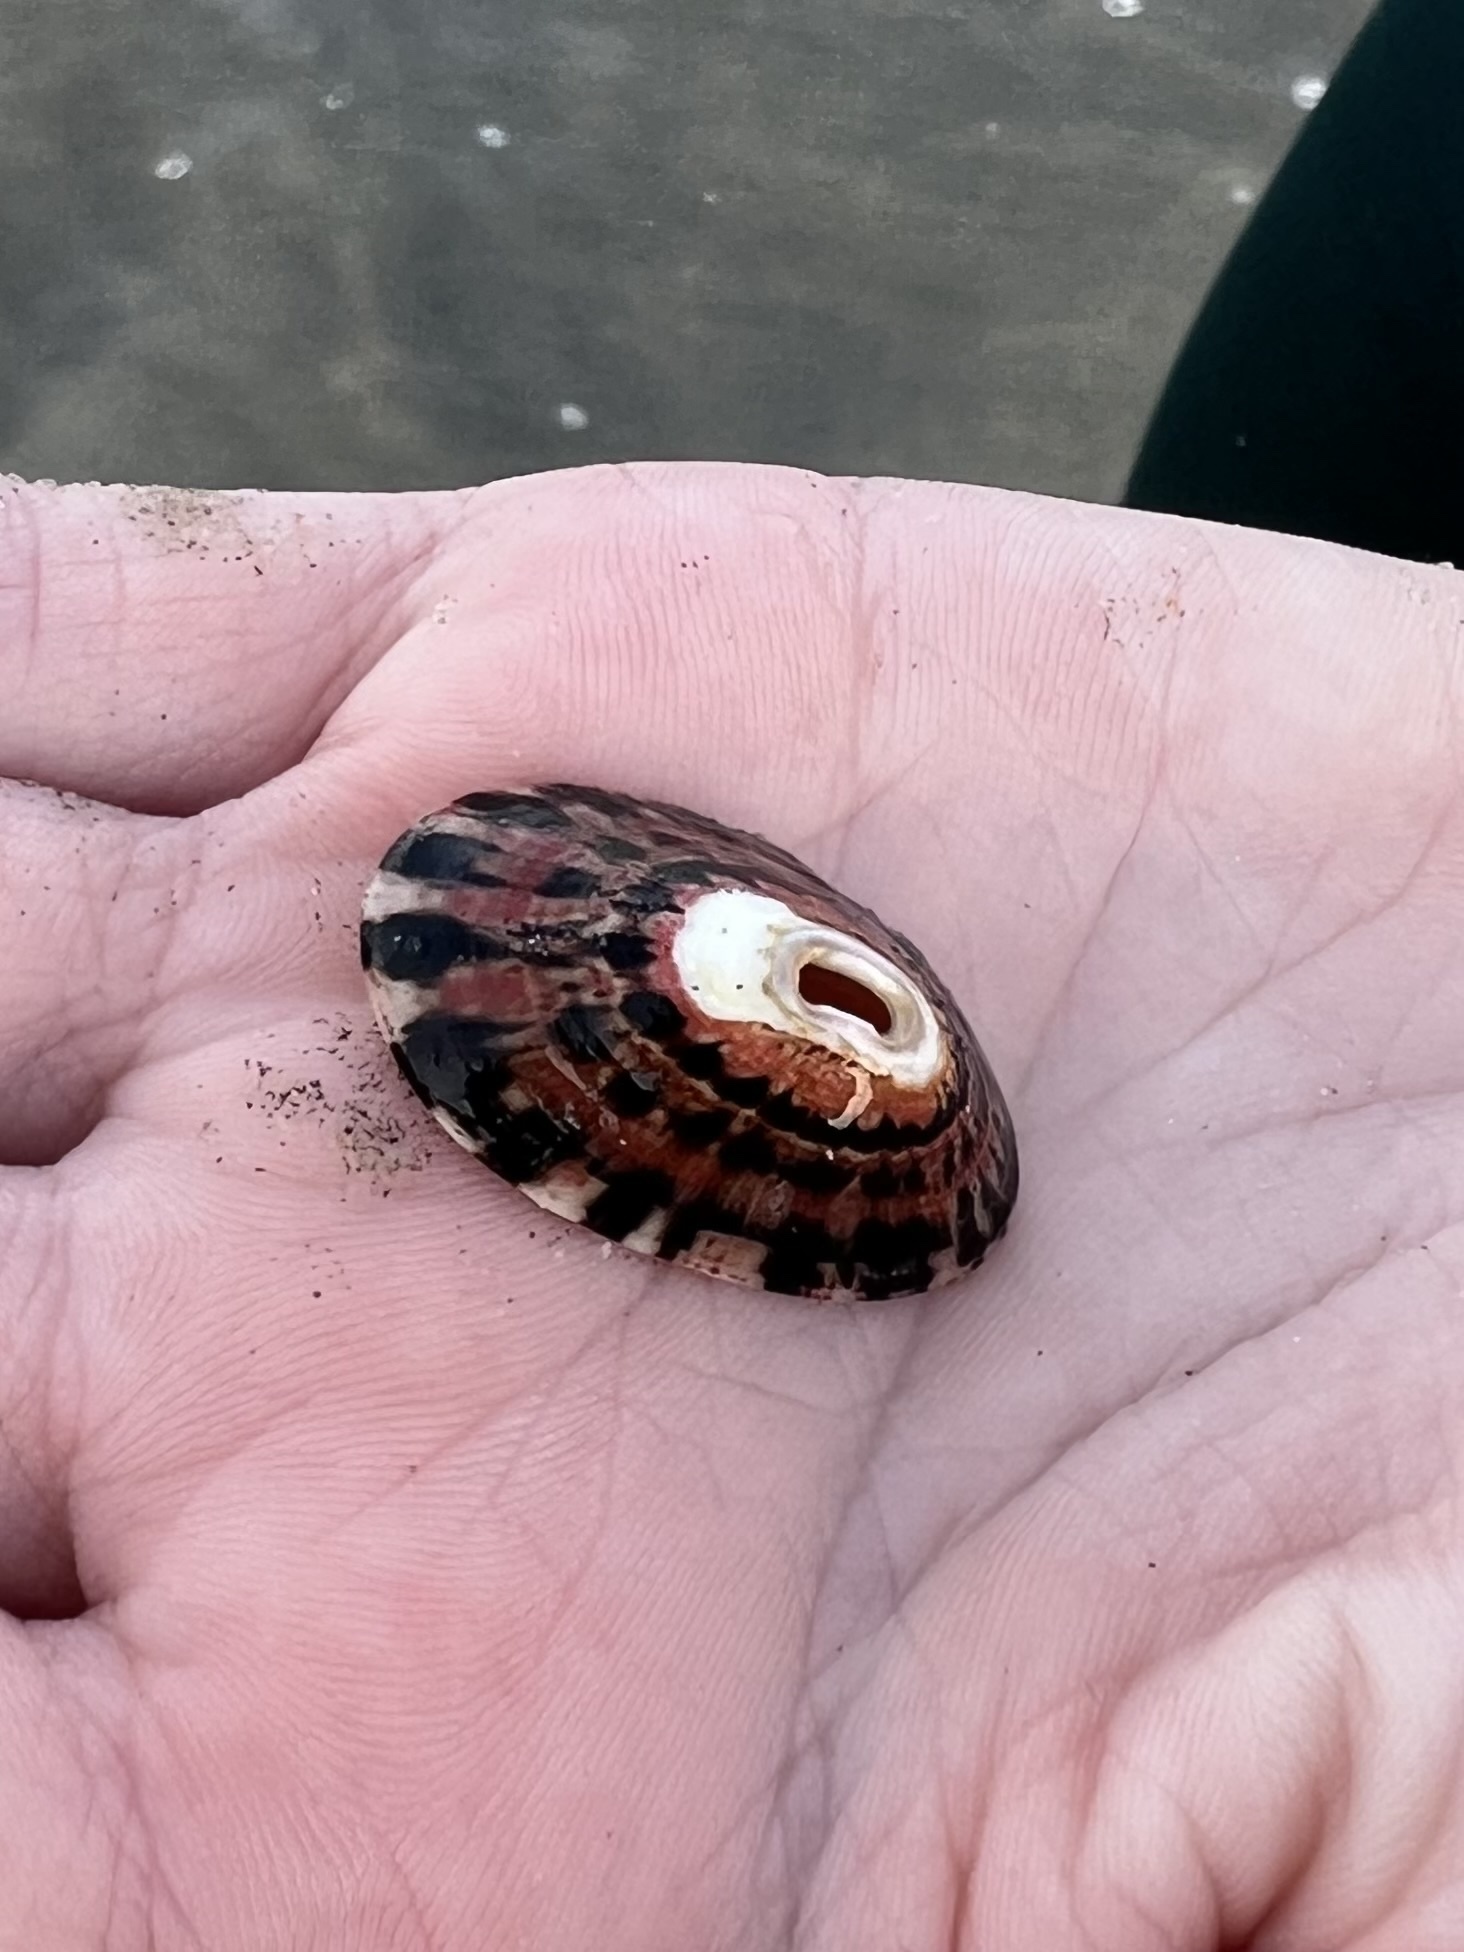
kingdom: Animalia
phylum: Mollusca
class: Gastropoda
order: Lepetellida
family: Fissurellidae
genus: Fissurella
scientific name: Fissurella volcano
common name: Volcano keyhole limpet
